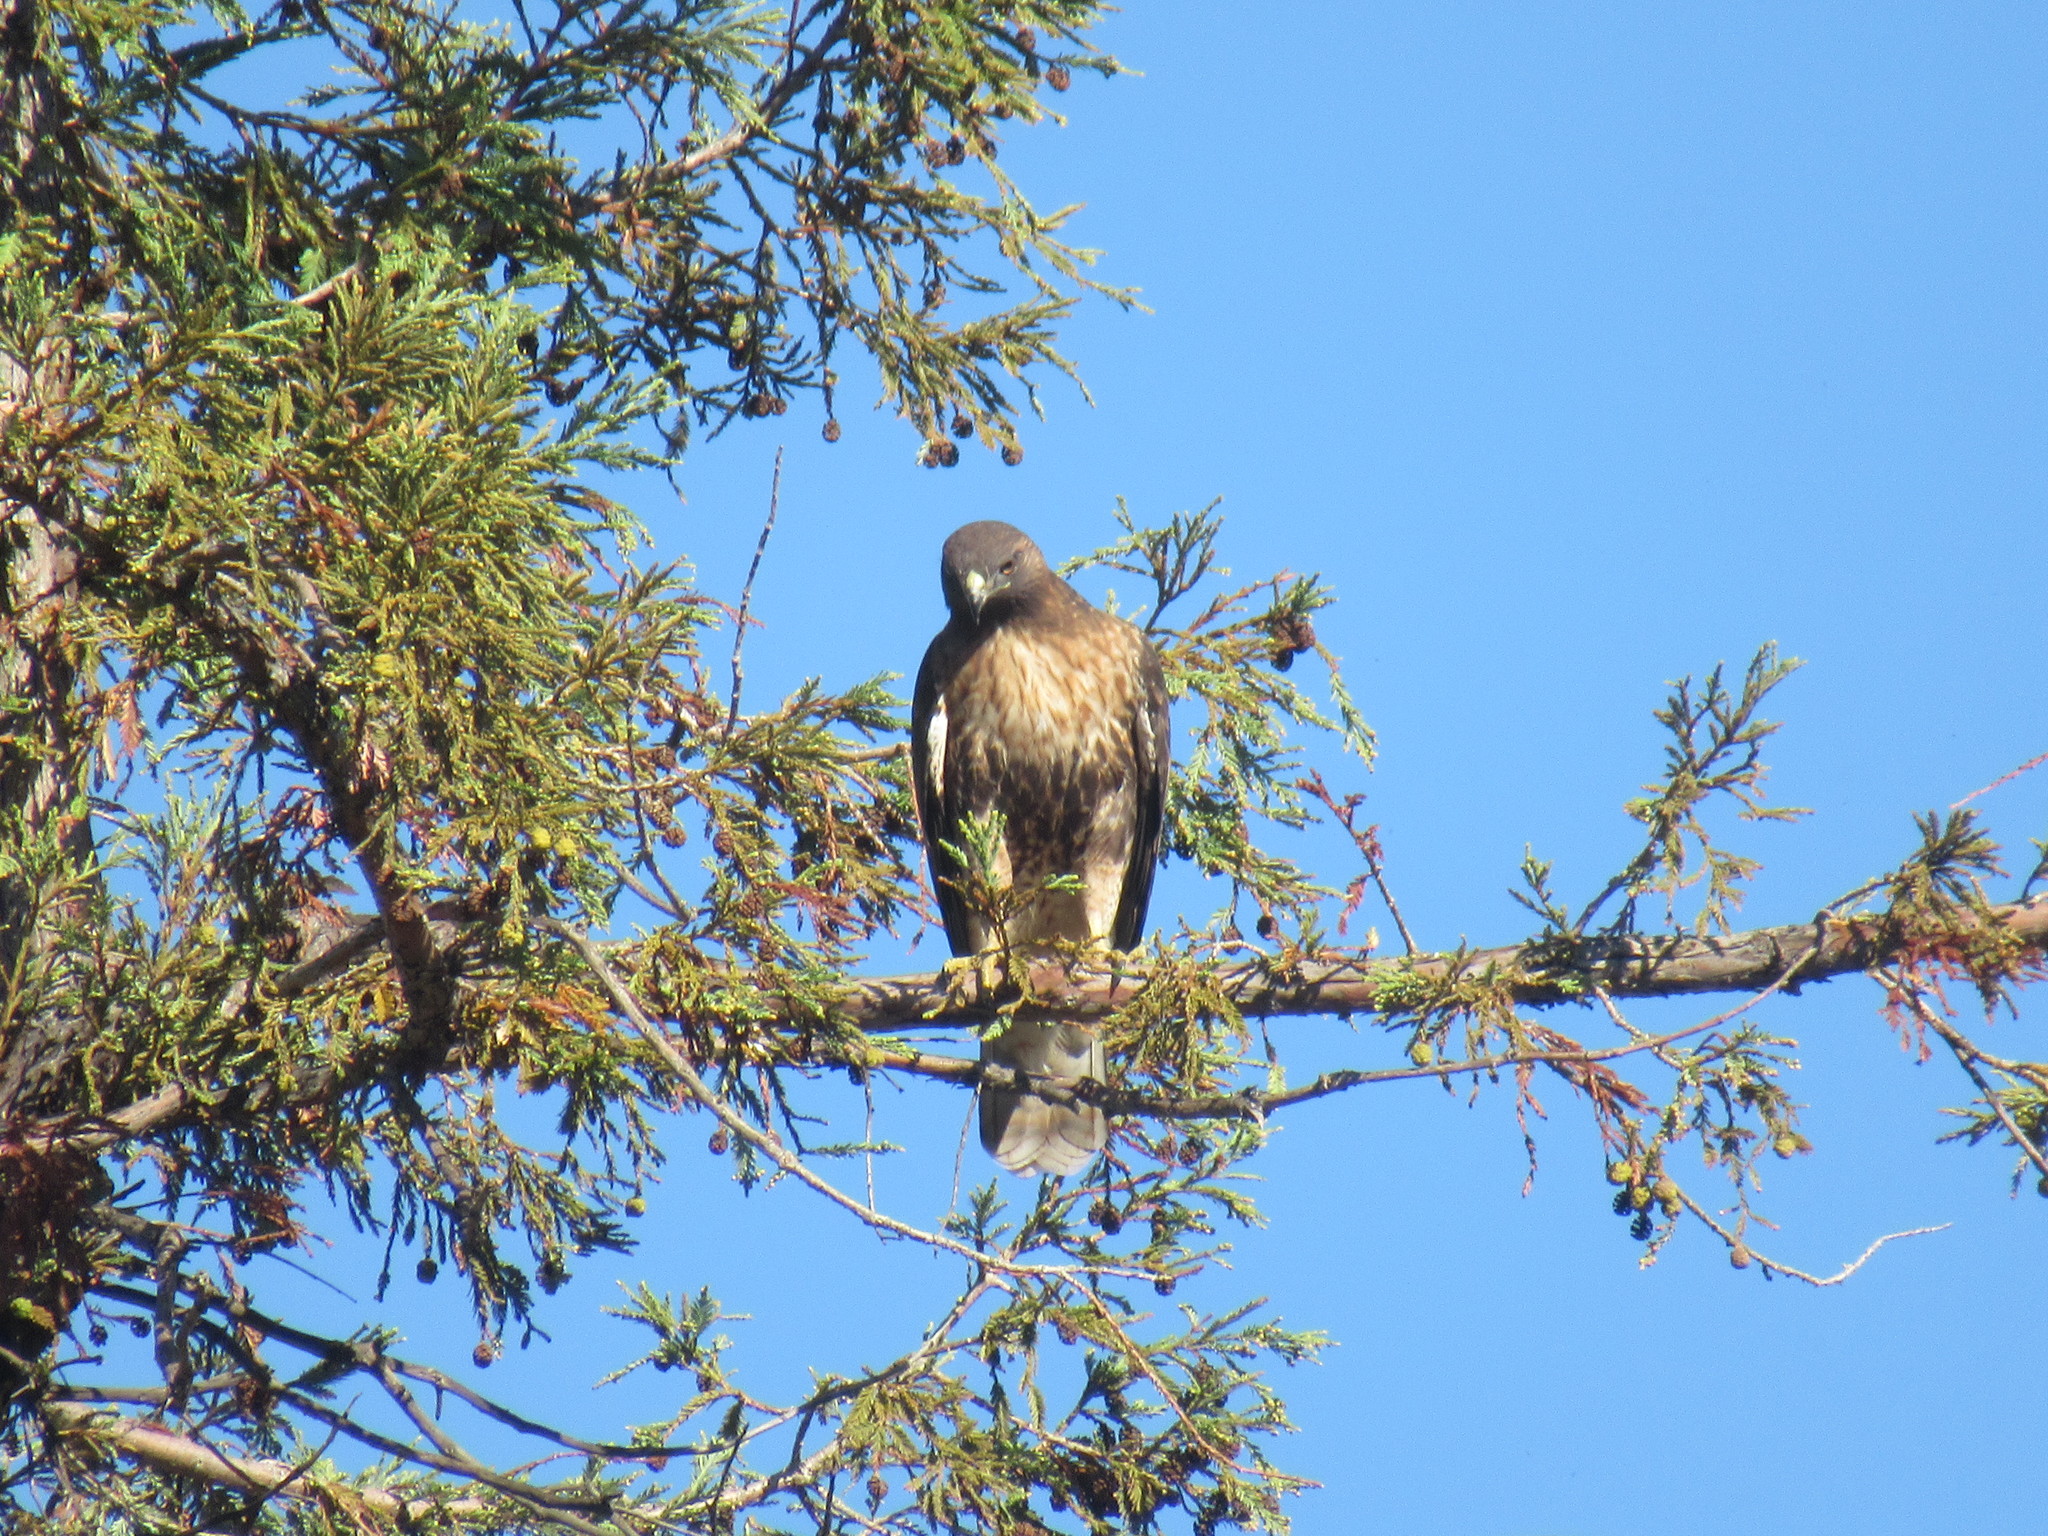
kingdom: Animalia
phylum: Chordata
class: Aves
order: Accipitriformes
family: Accipitridae
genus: Buteo
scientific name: Buteo jamaicensis
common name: Red-tailed hawk
